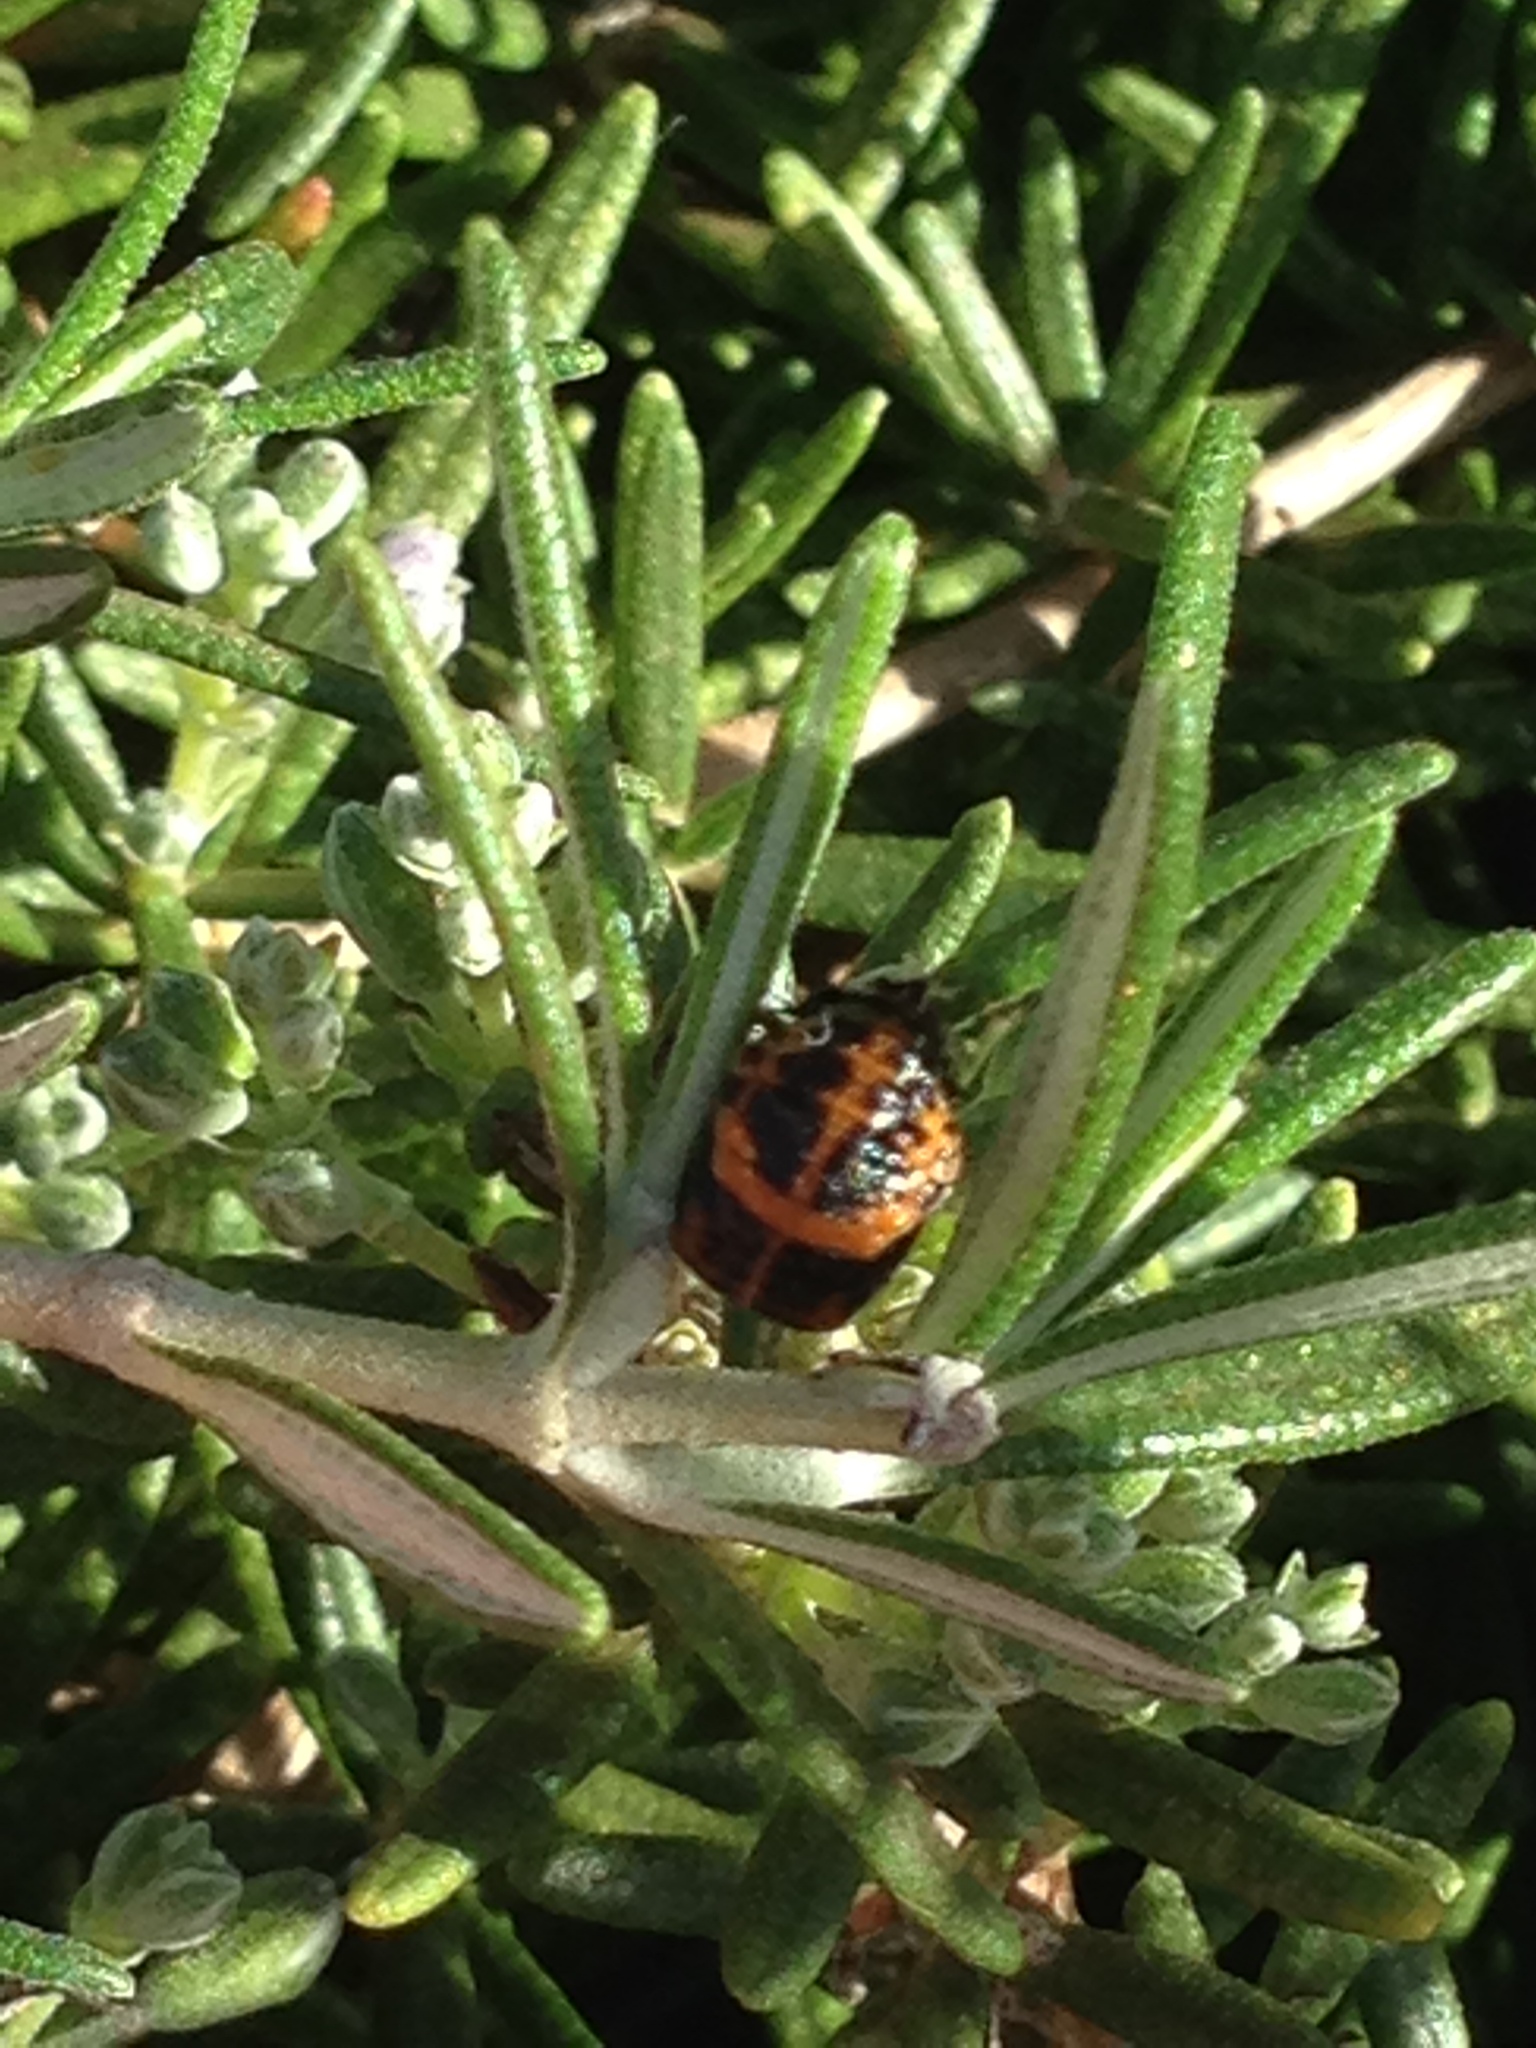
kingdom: Animalia
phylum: Arthropoda
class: Insecta
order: Coleoptera
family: Coccinellidae
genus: Harmonia
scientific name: Harmonia axyridis
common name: Harlequin ladybird
